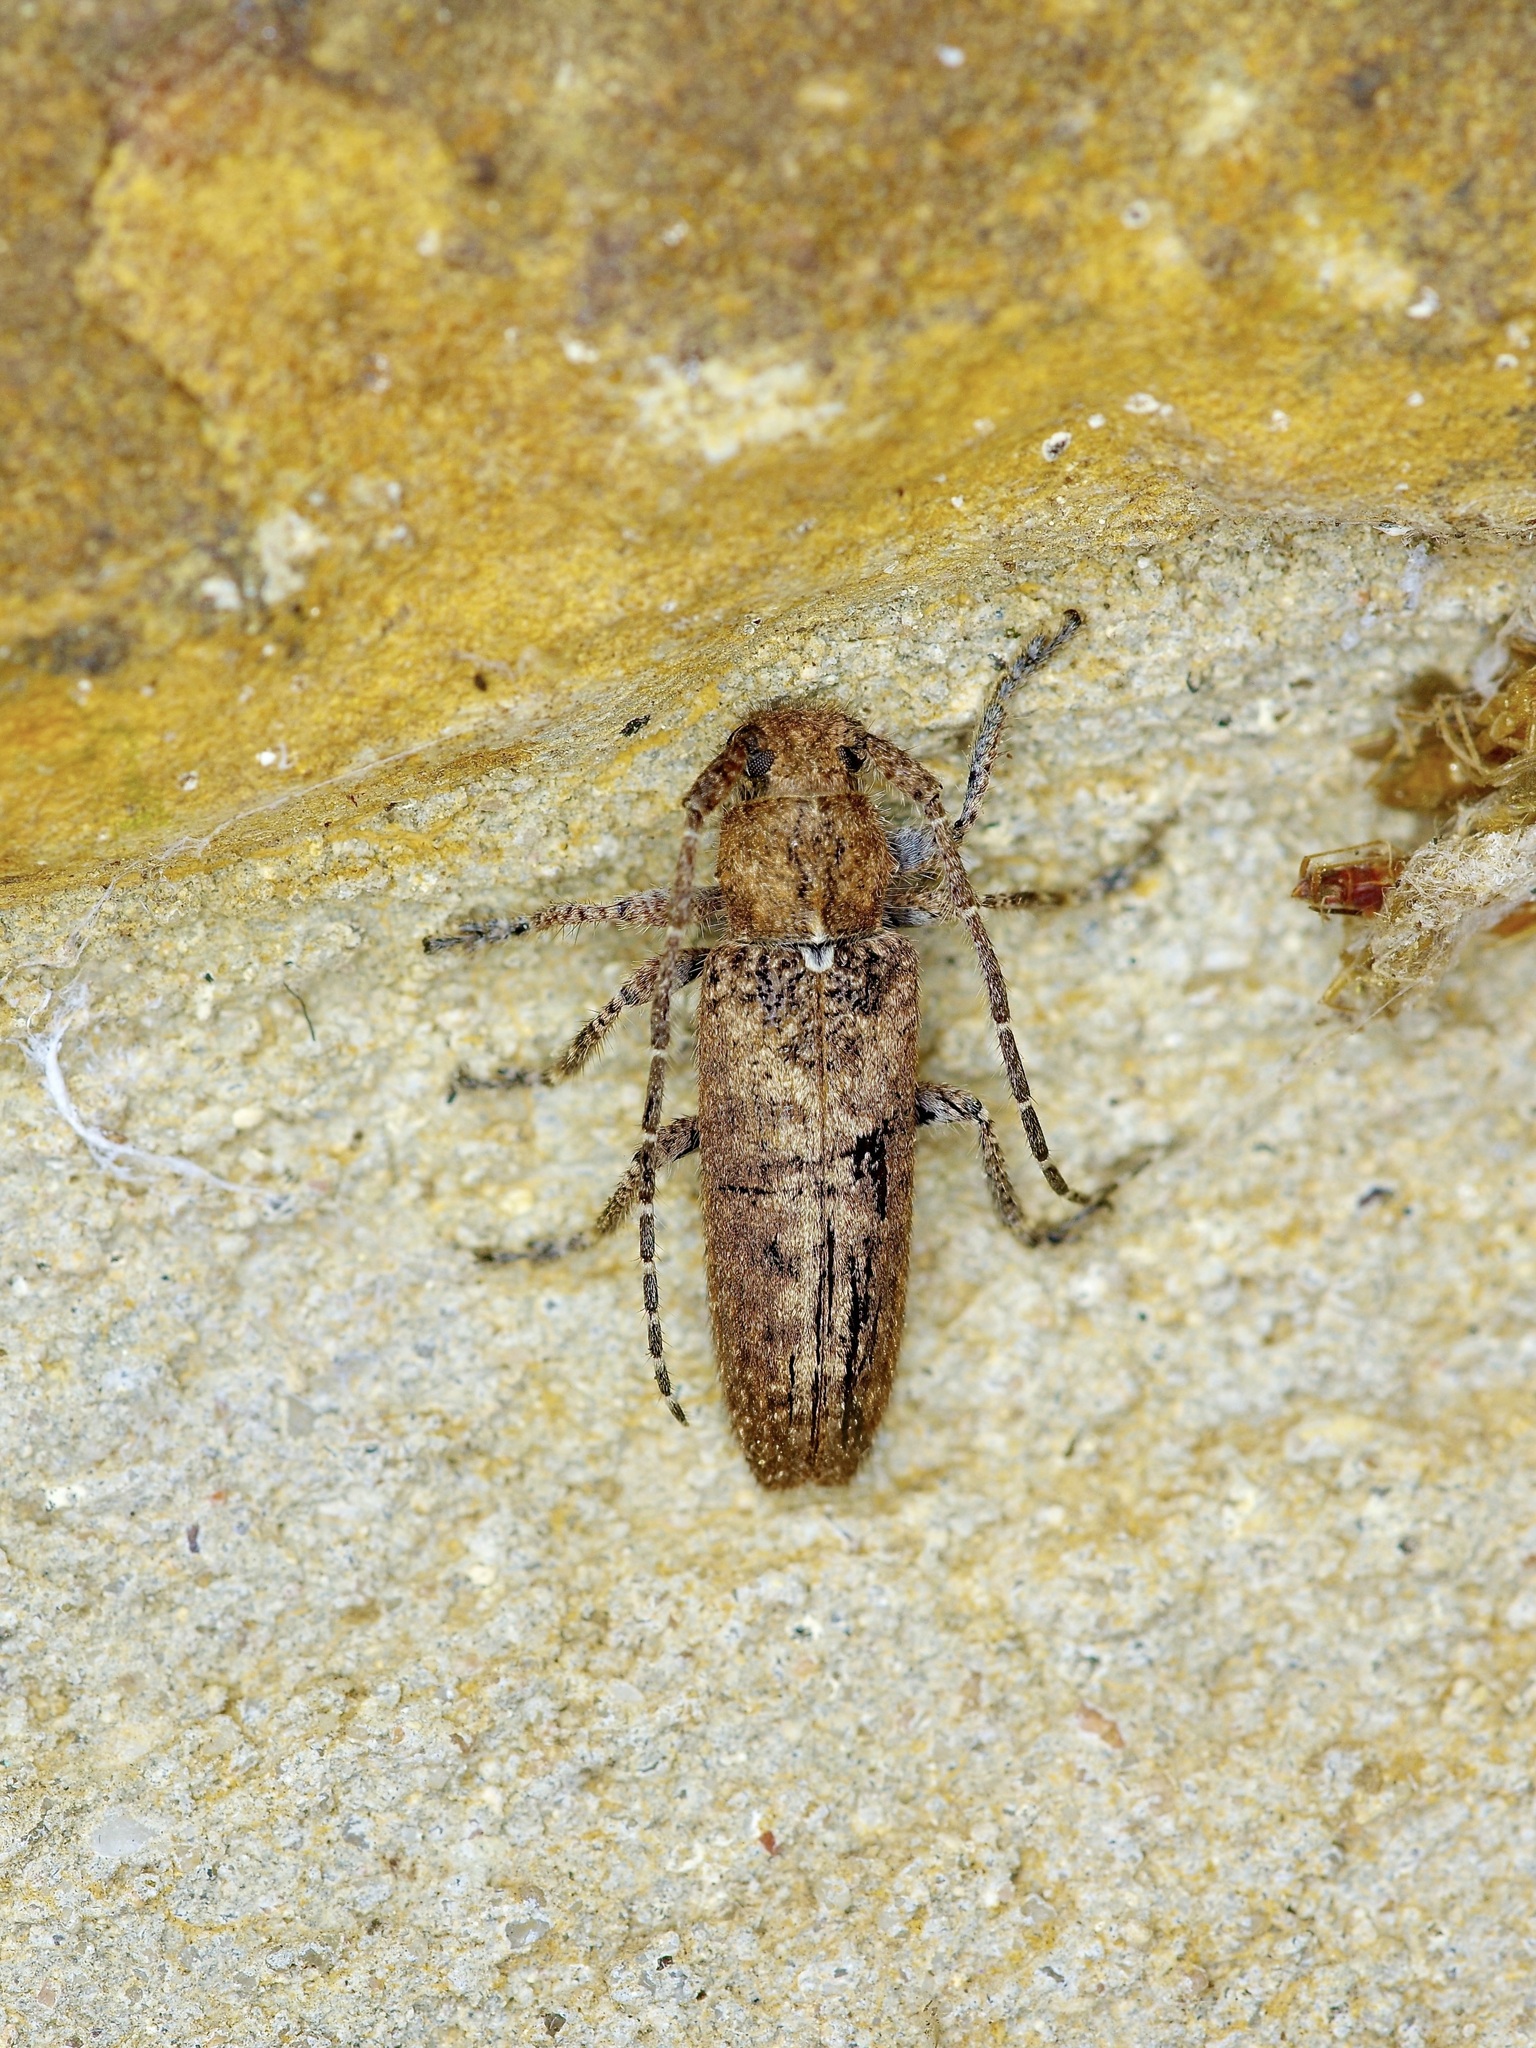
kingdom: Animalia
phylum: Arthropoda
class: Insecta
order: Coleoptera
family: Cerambycidae
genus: Ataxia
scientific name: Ataxia crypta
